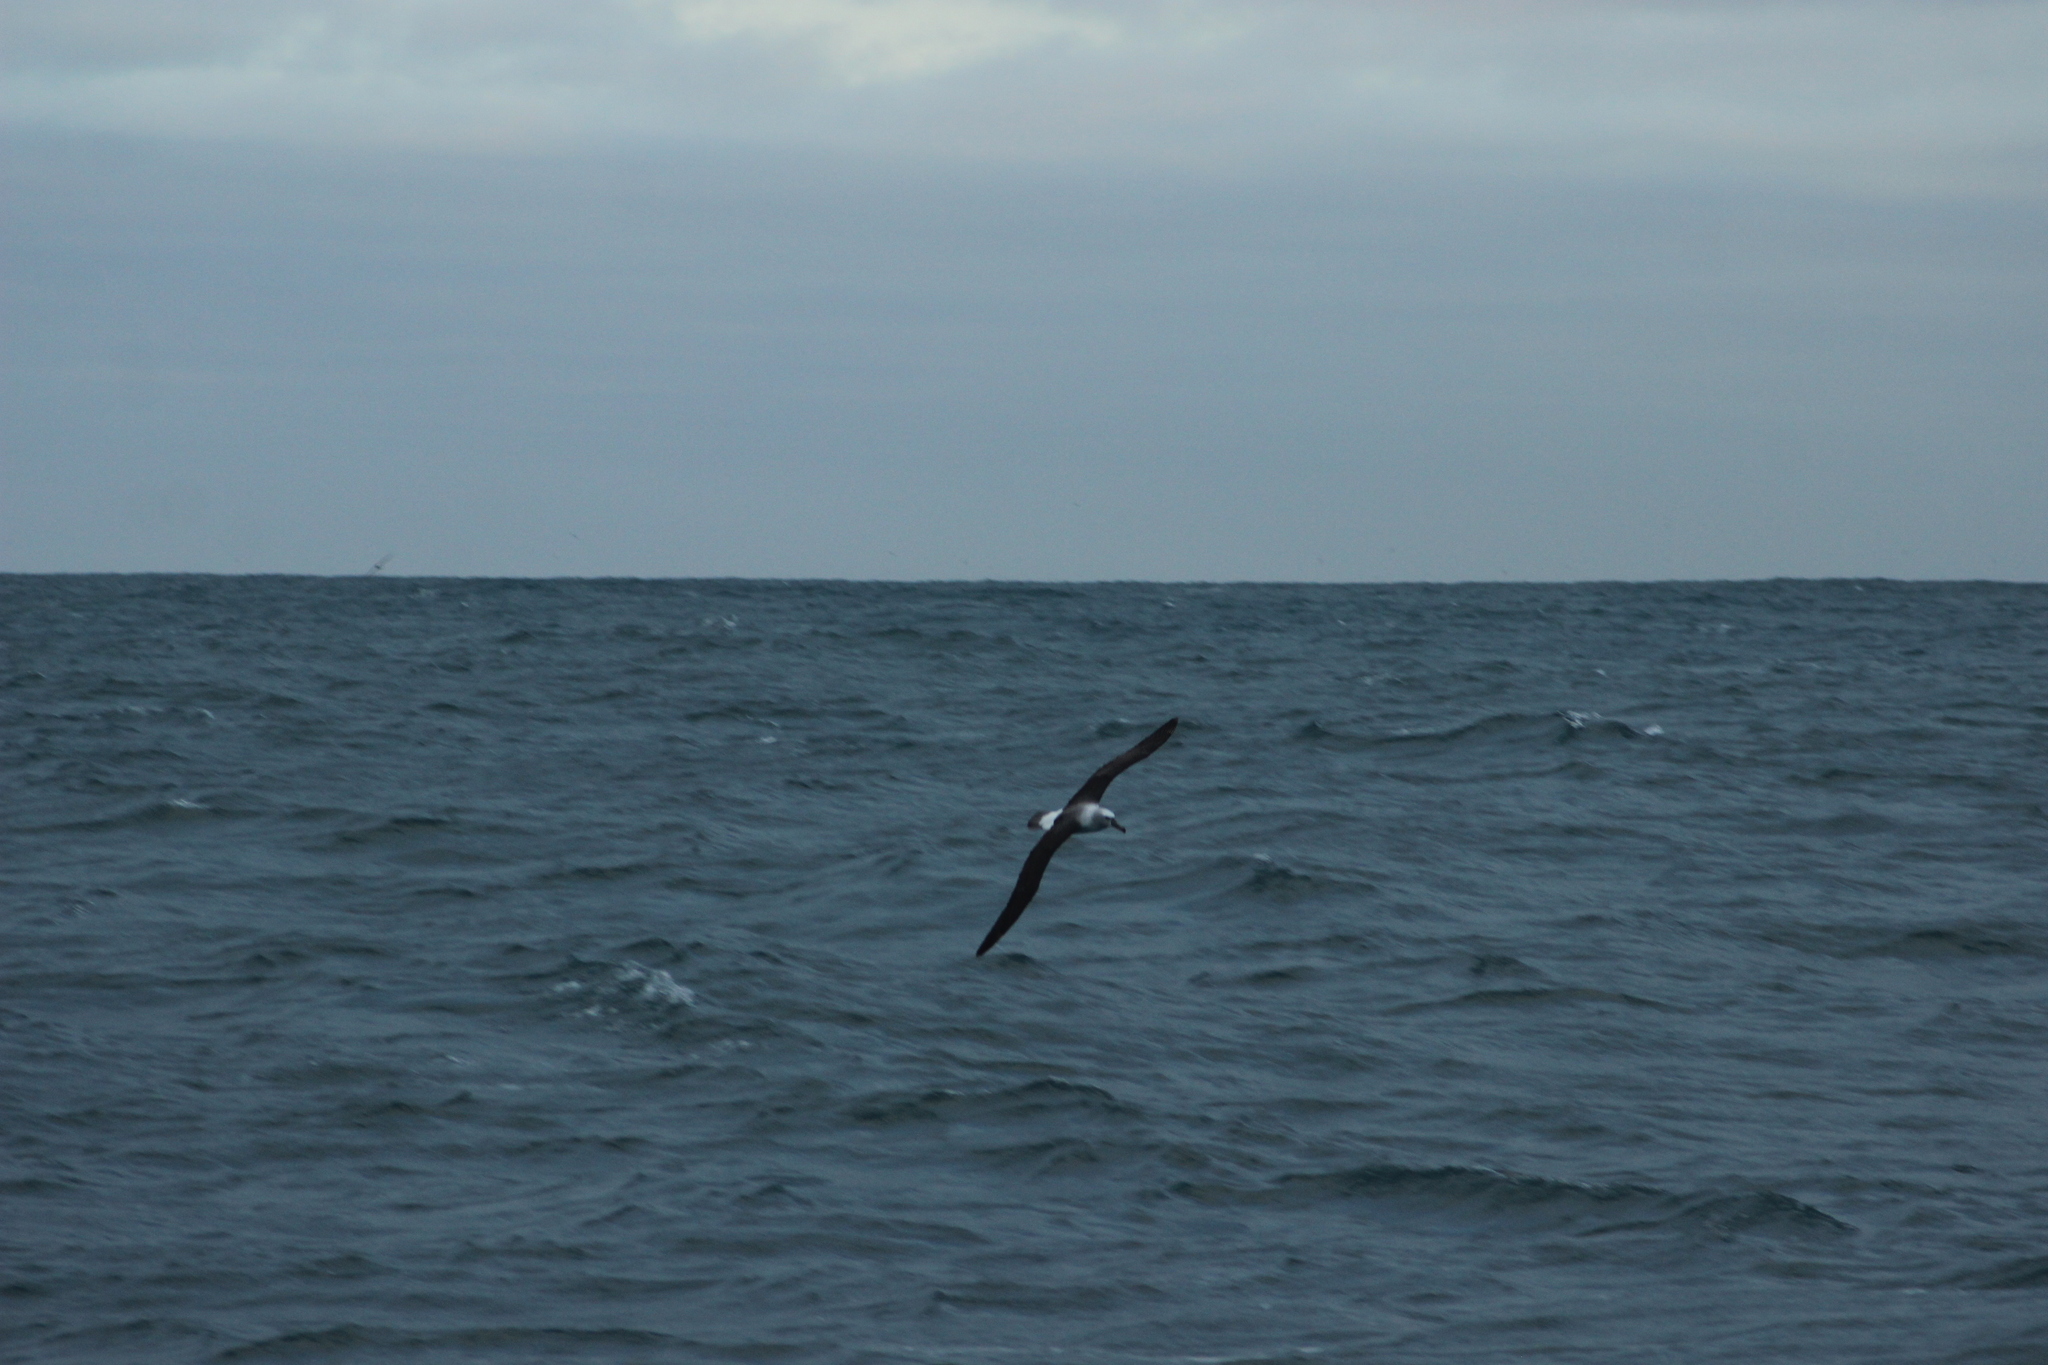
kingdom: Animalia
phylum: Chordata
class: Aves
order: Procellariiformes
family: Diomedeidae
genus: Thalassarche
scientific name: Thalassarche cauta
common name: Shy albatross
